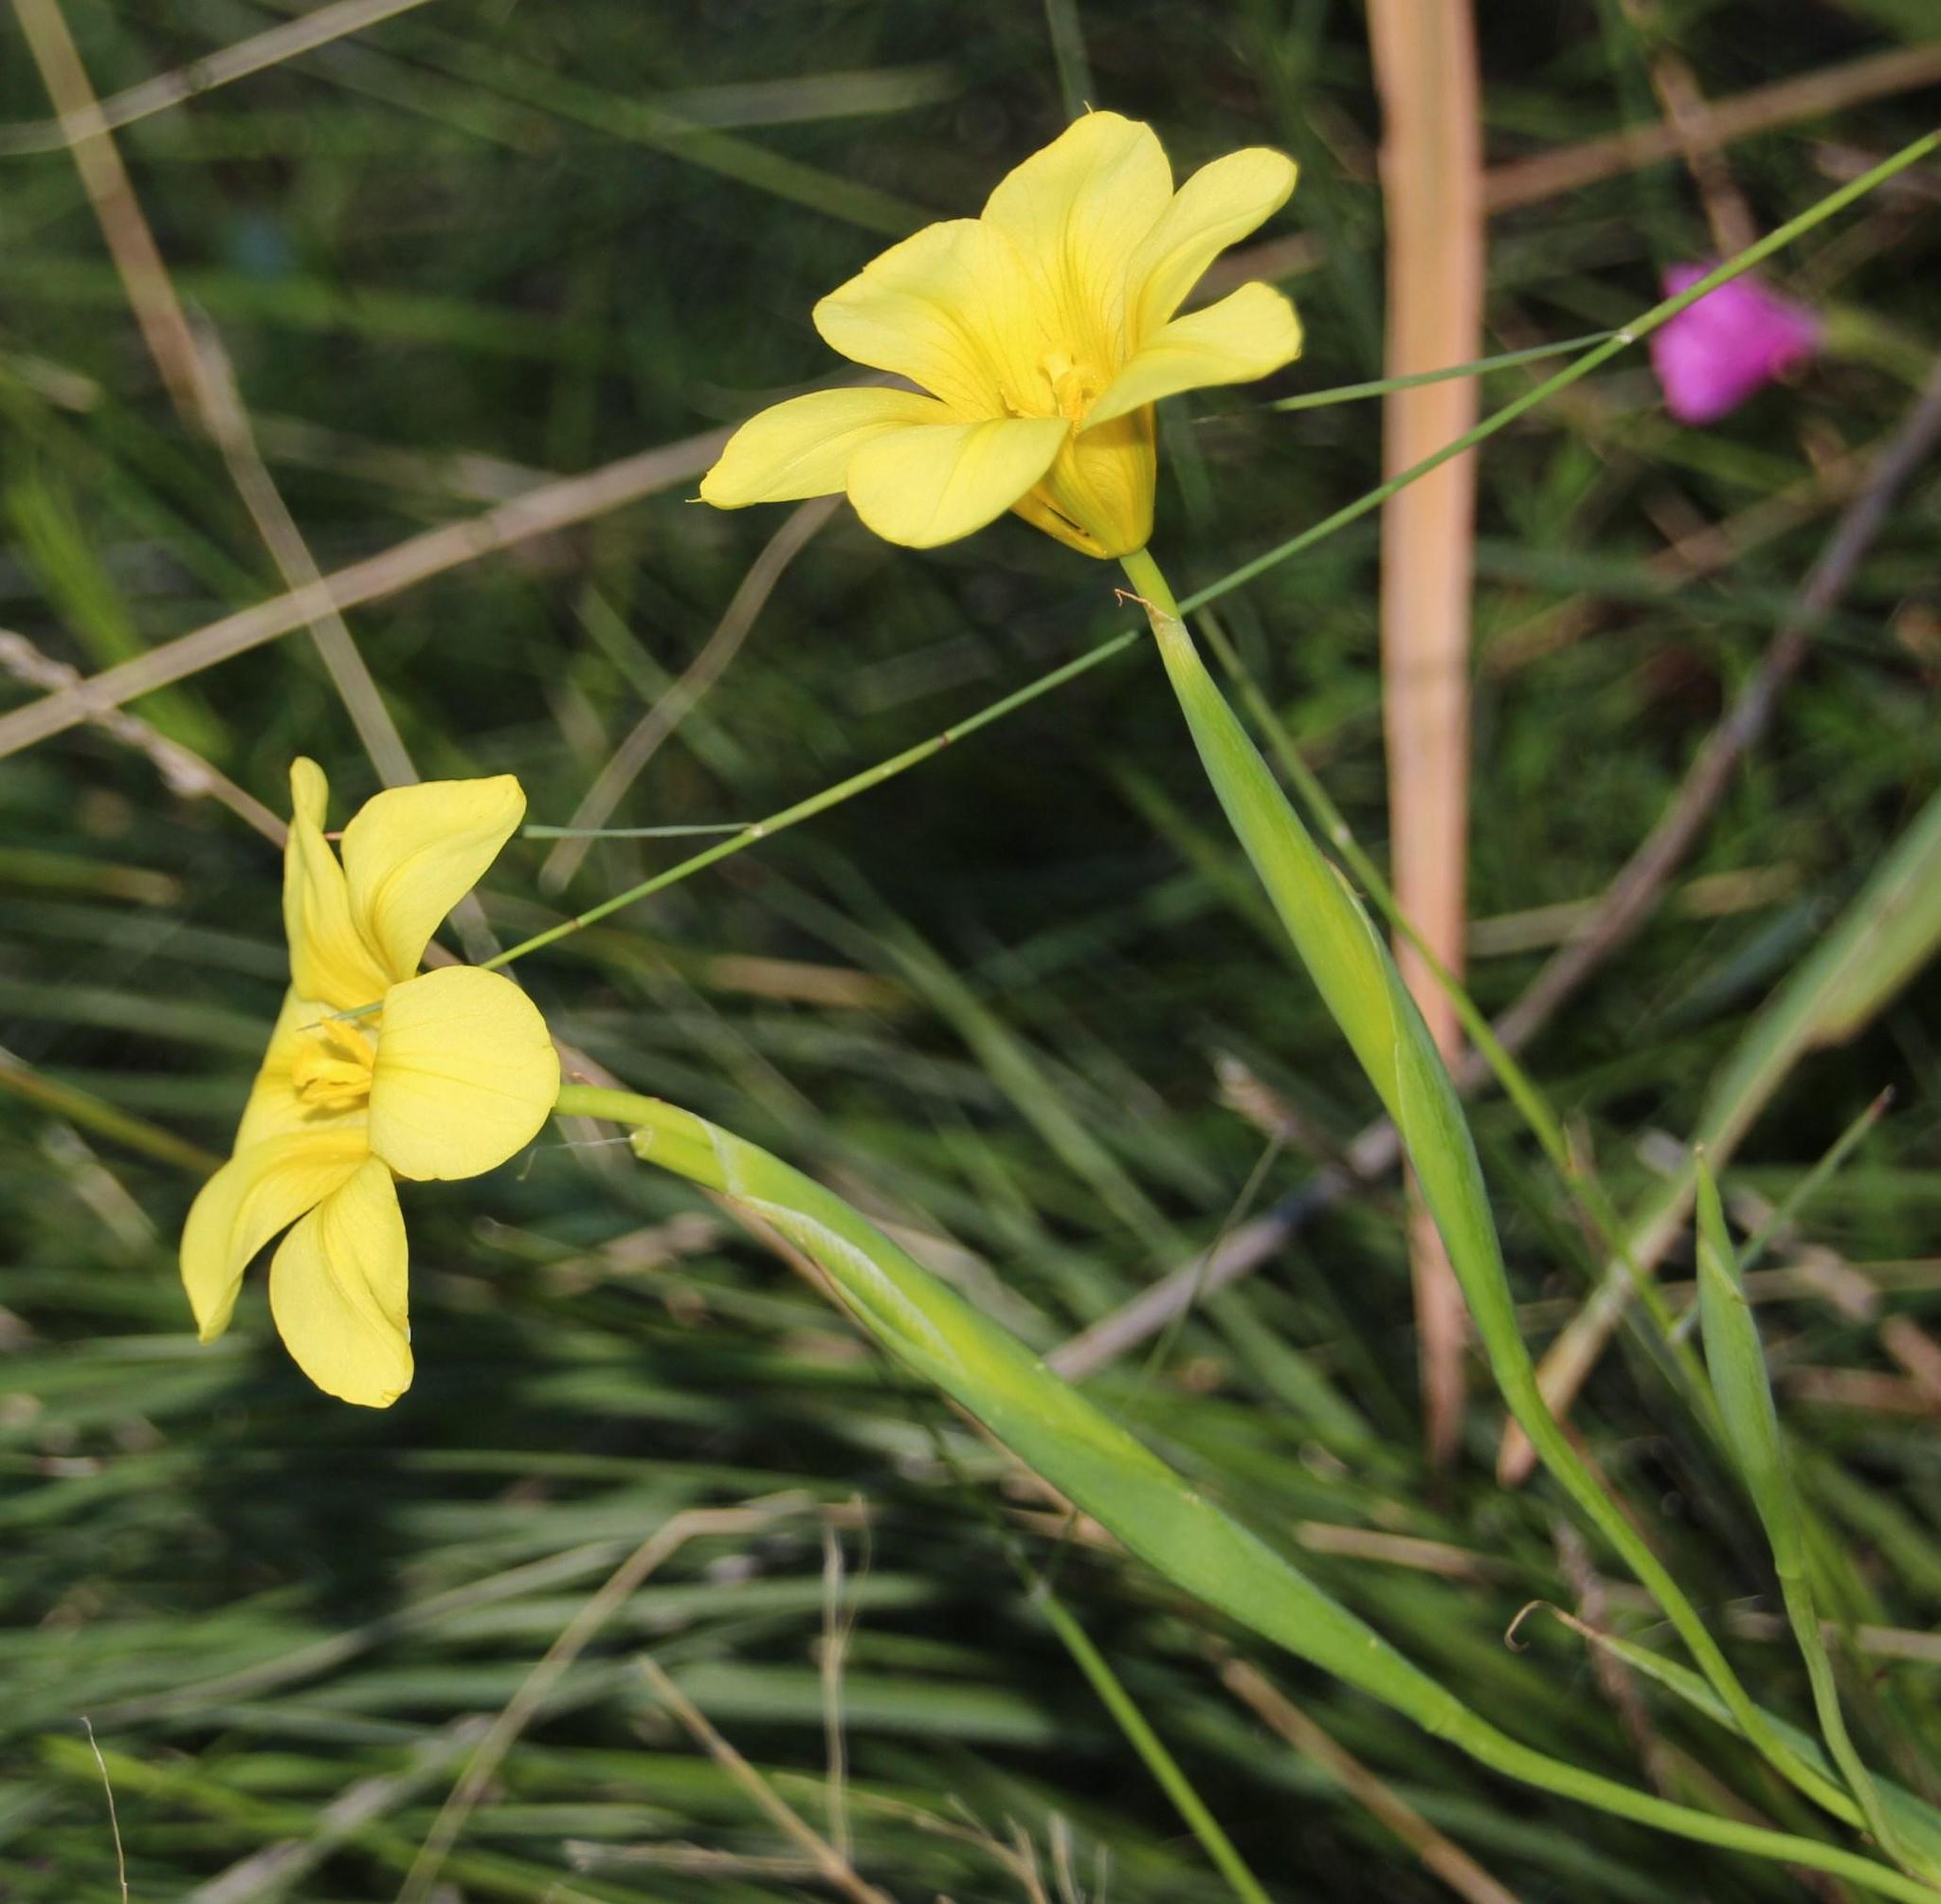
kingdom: Plantae
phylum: Tracheophyta
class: Liliopsida
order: Asparagales
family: Iridaceae
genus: Moraea
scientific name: Moraea ochroleuca
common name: Red tulp
